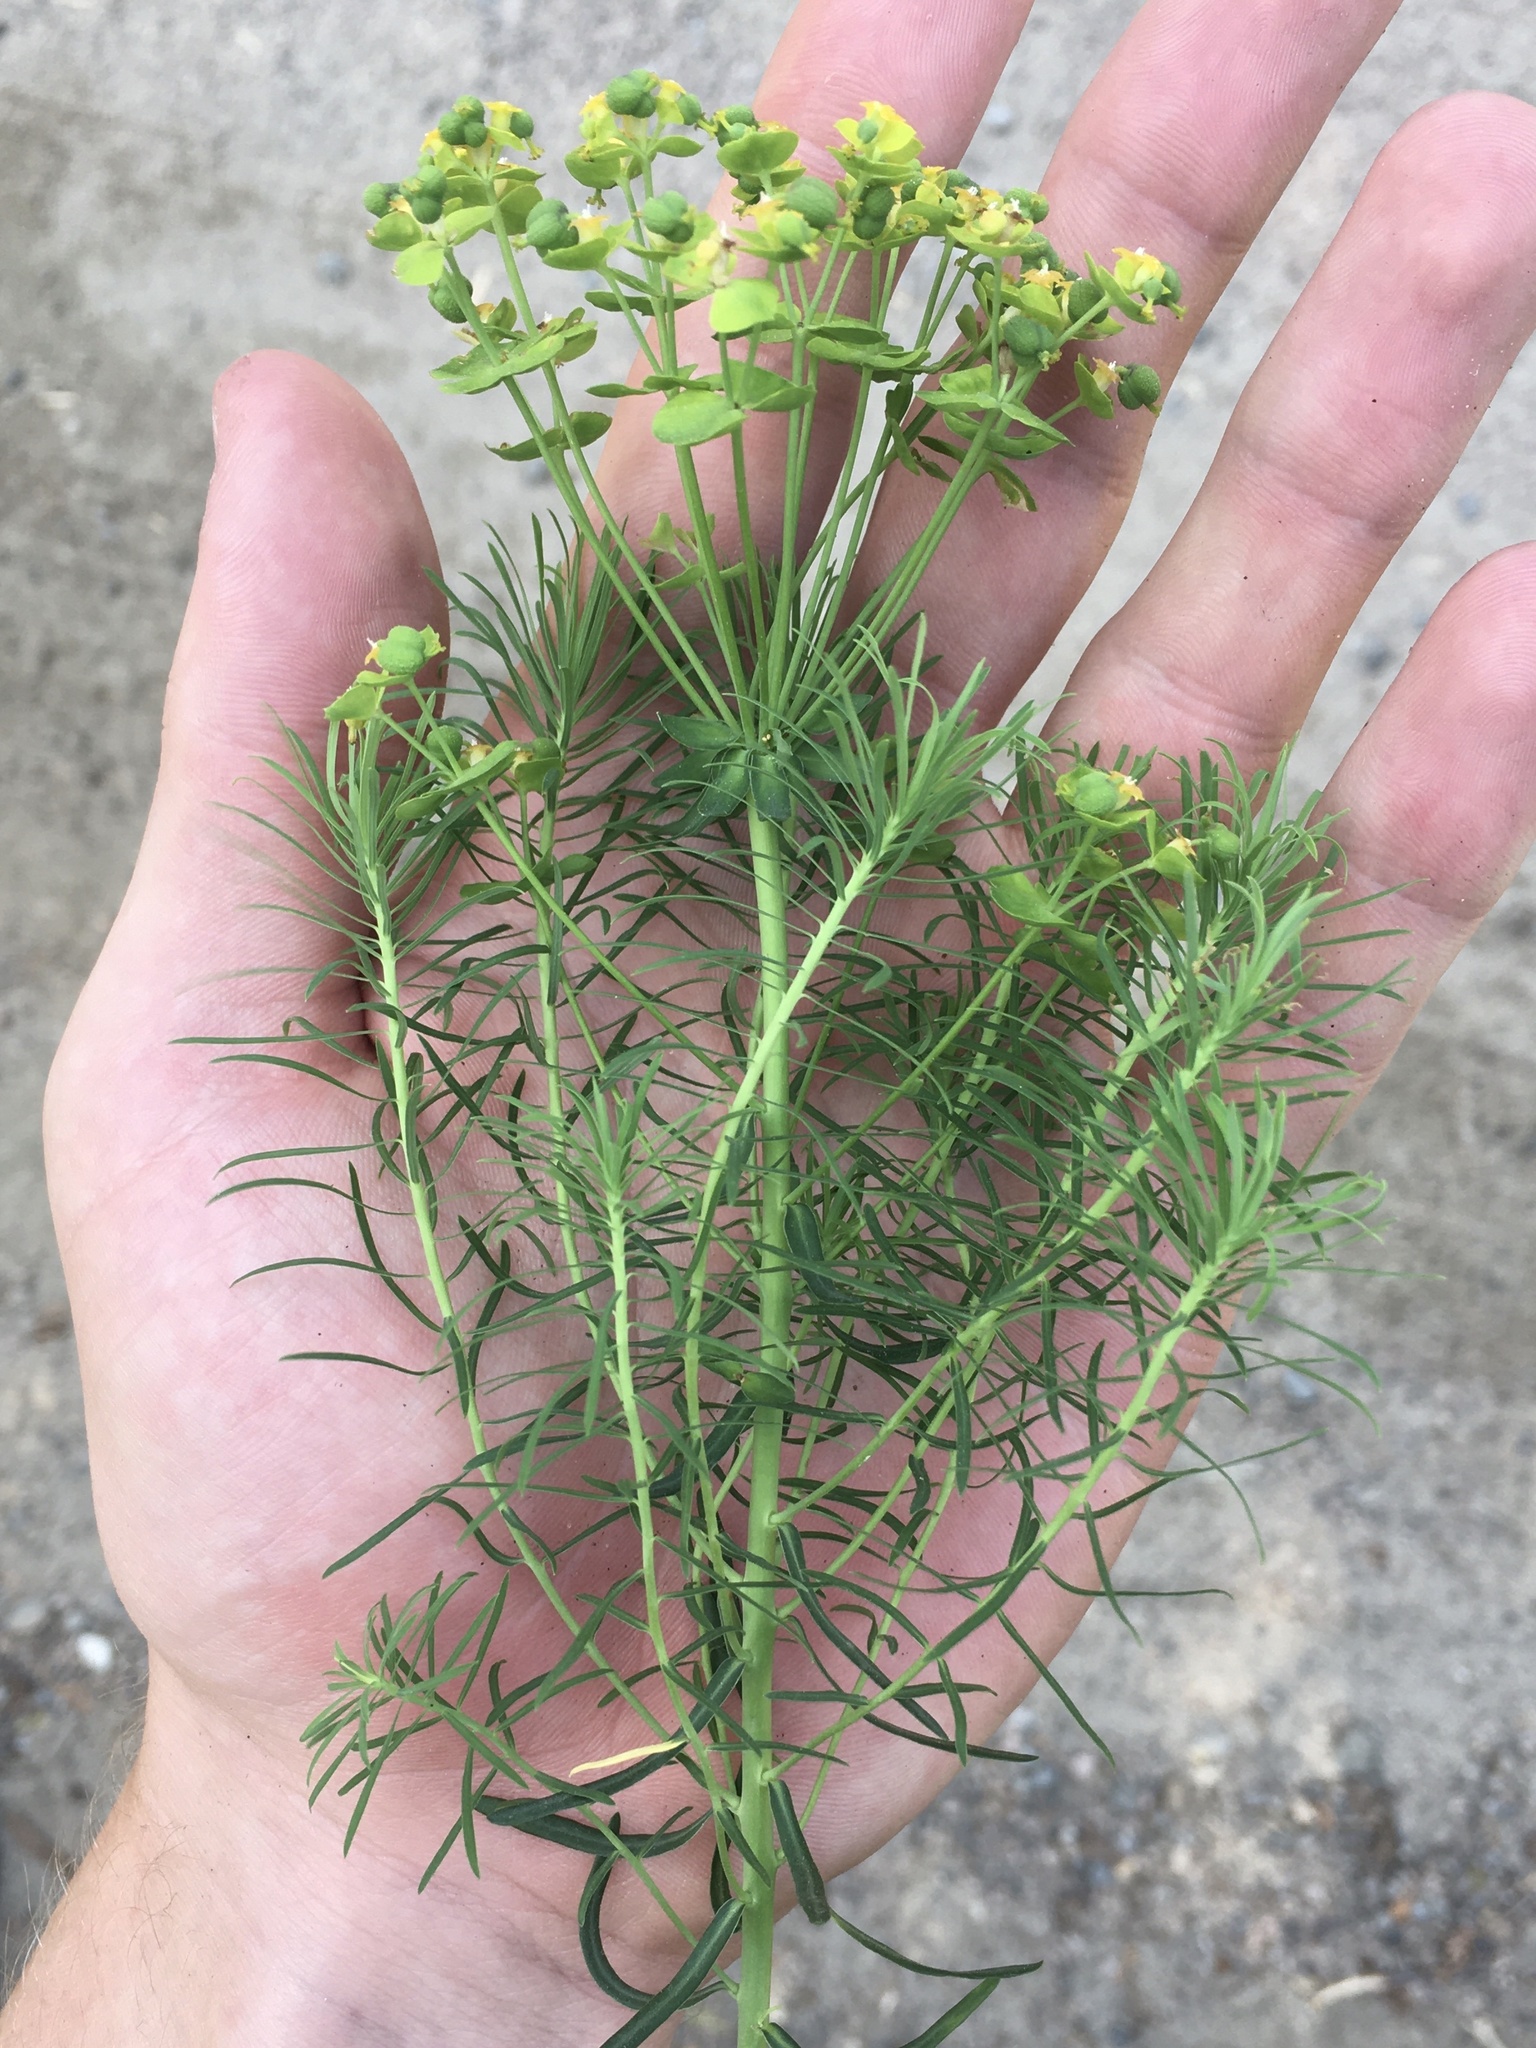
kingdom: Plantae
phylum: Tracheophyta
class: Magnoliopsida
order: Malpighiales
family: Euphorbiaceae
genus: Euphorbia
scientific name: Euphorbia cyparissias
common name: Cypress spurge
